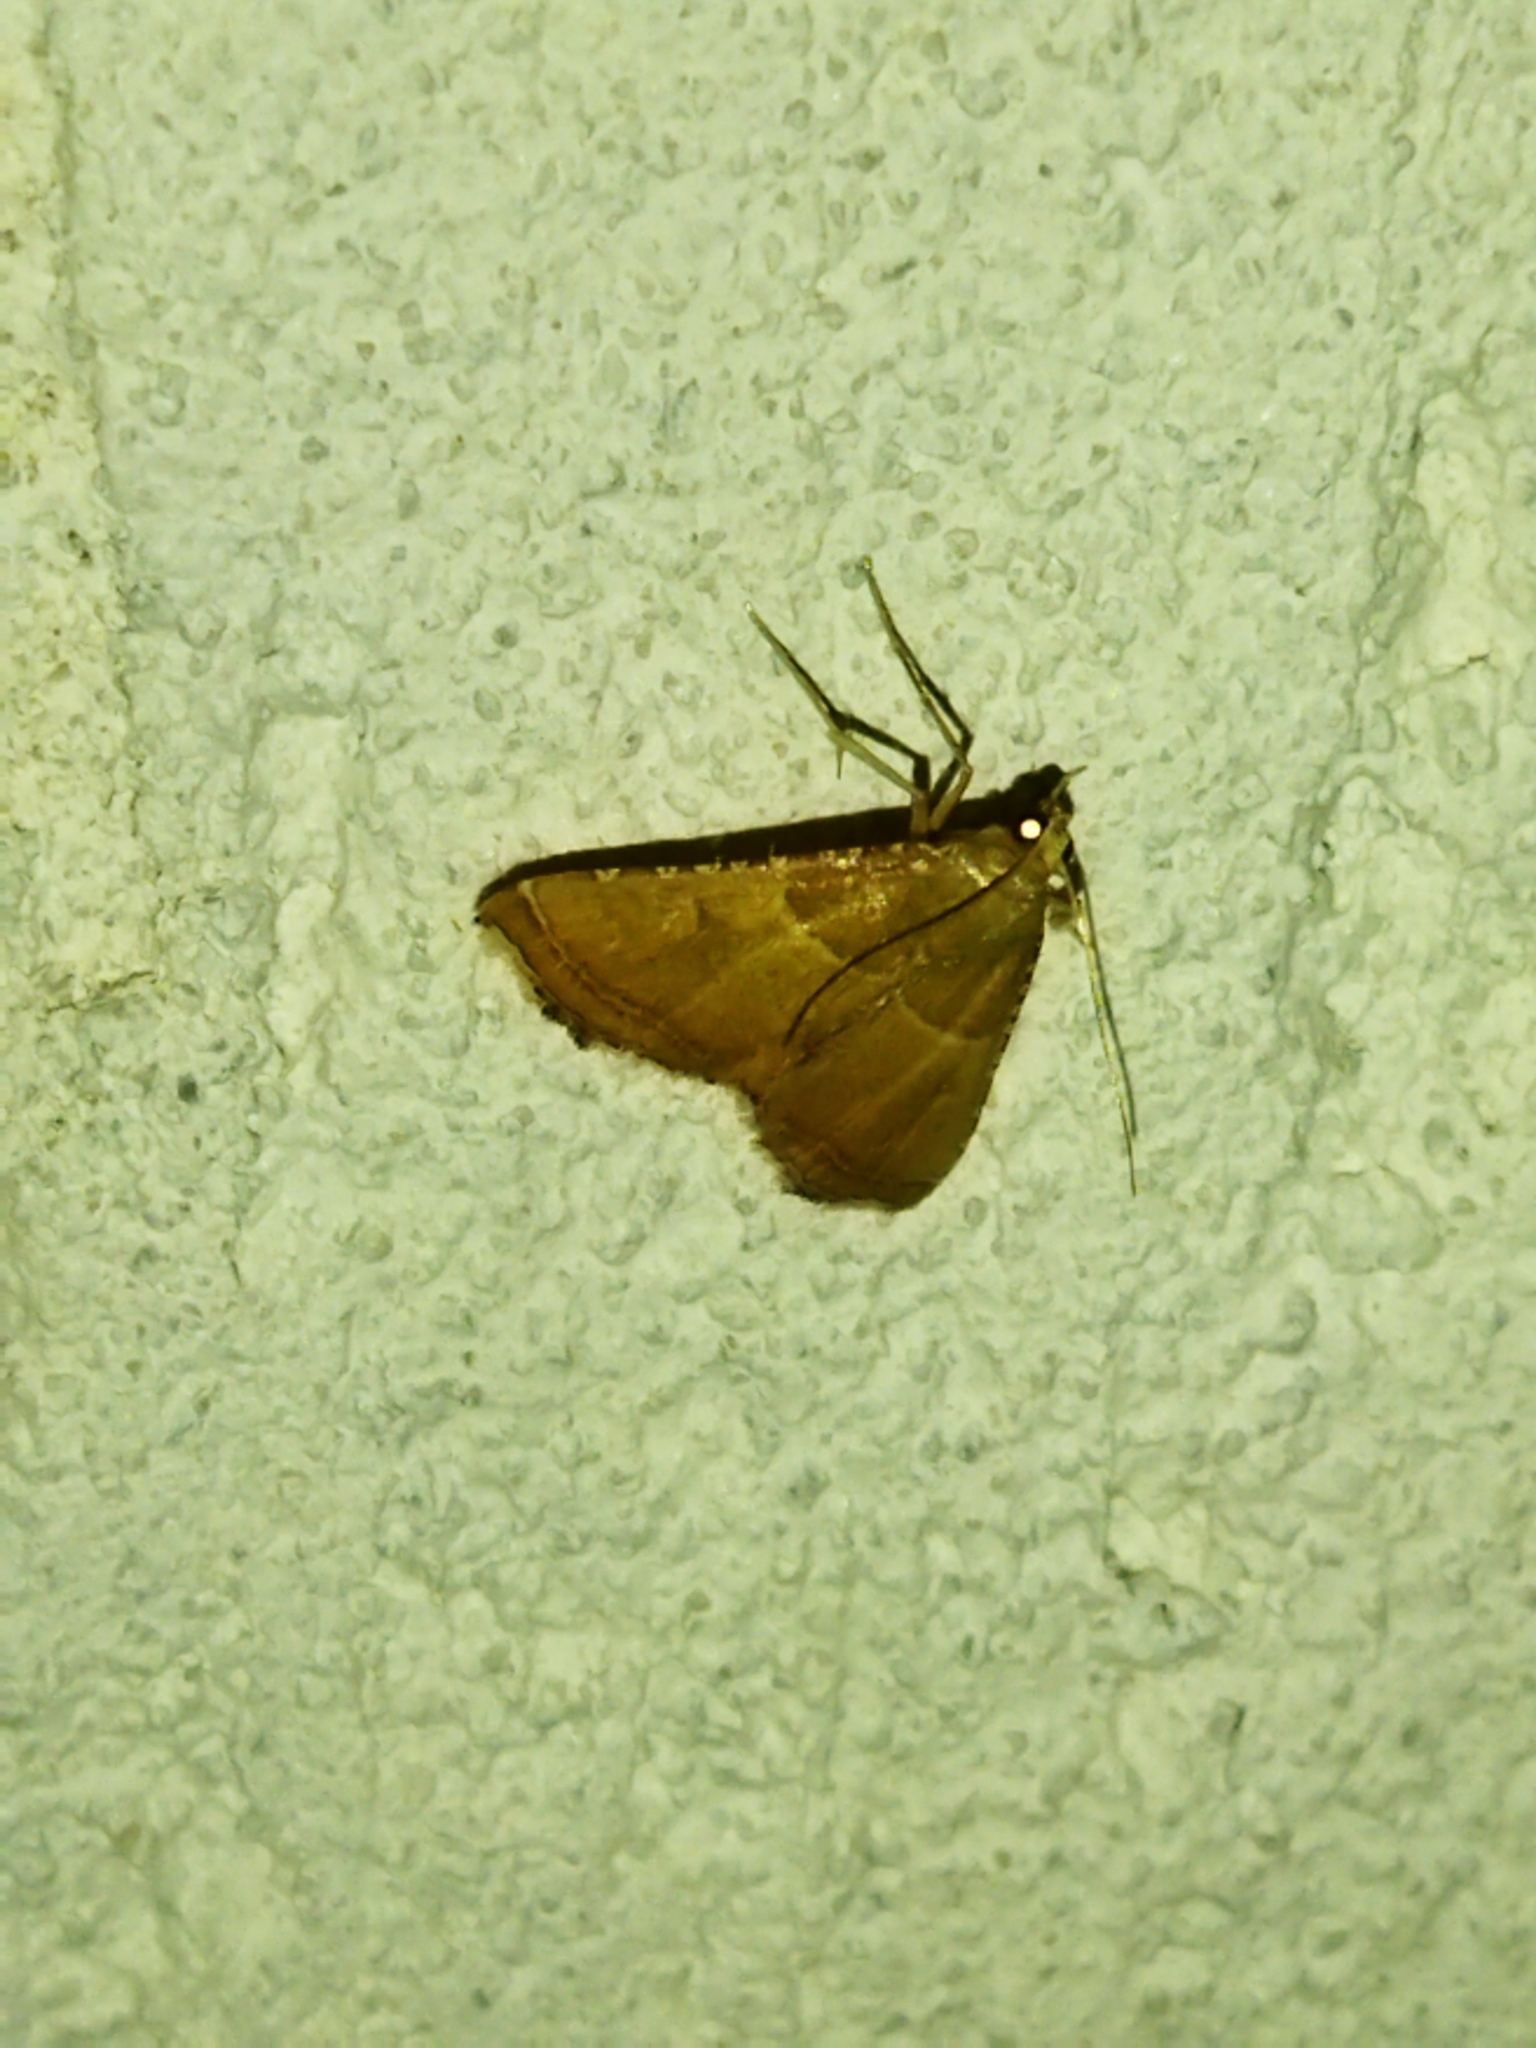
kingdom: Animalia
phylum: Arthropoda
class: Insecta
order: Lepidoptera
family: Pyralidae
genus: Endotricha
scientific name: Endotricha flammealis
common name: Rosy tabby
